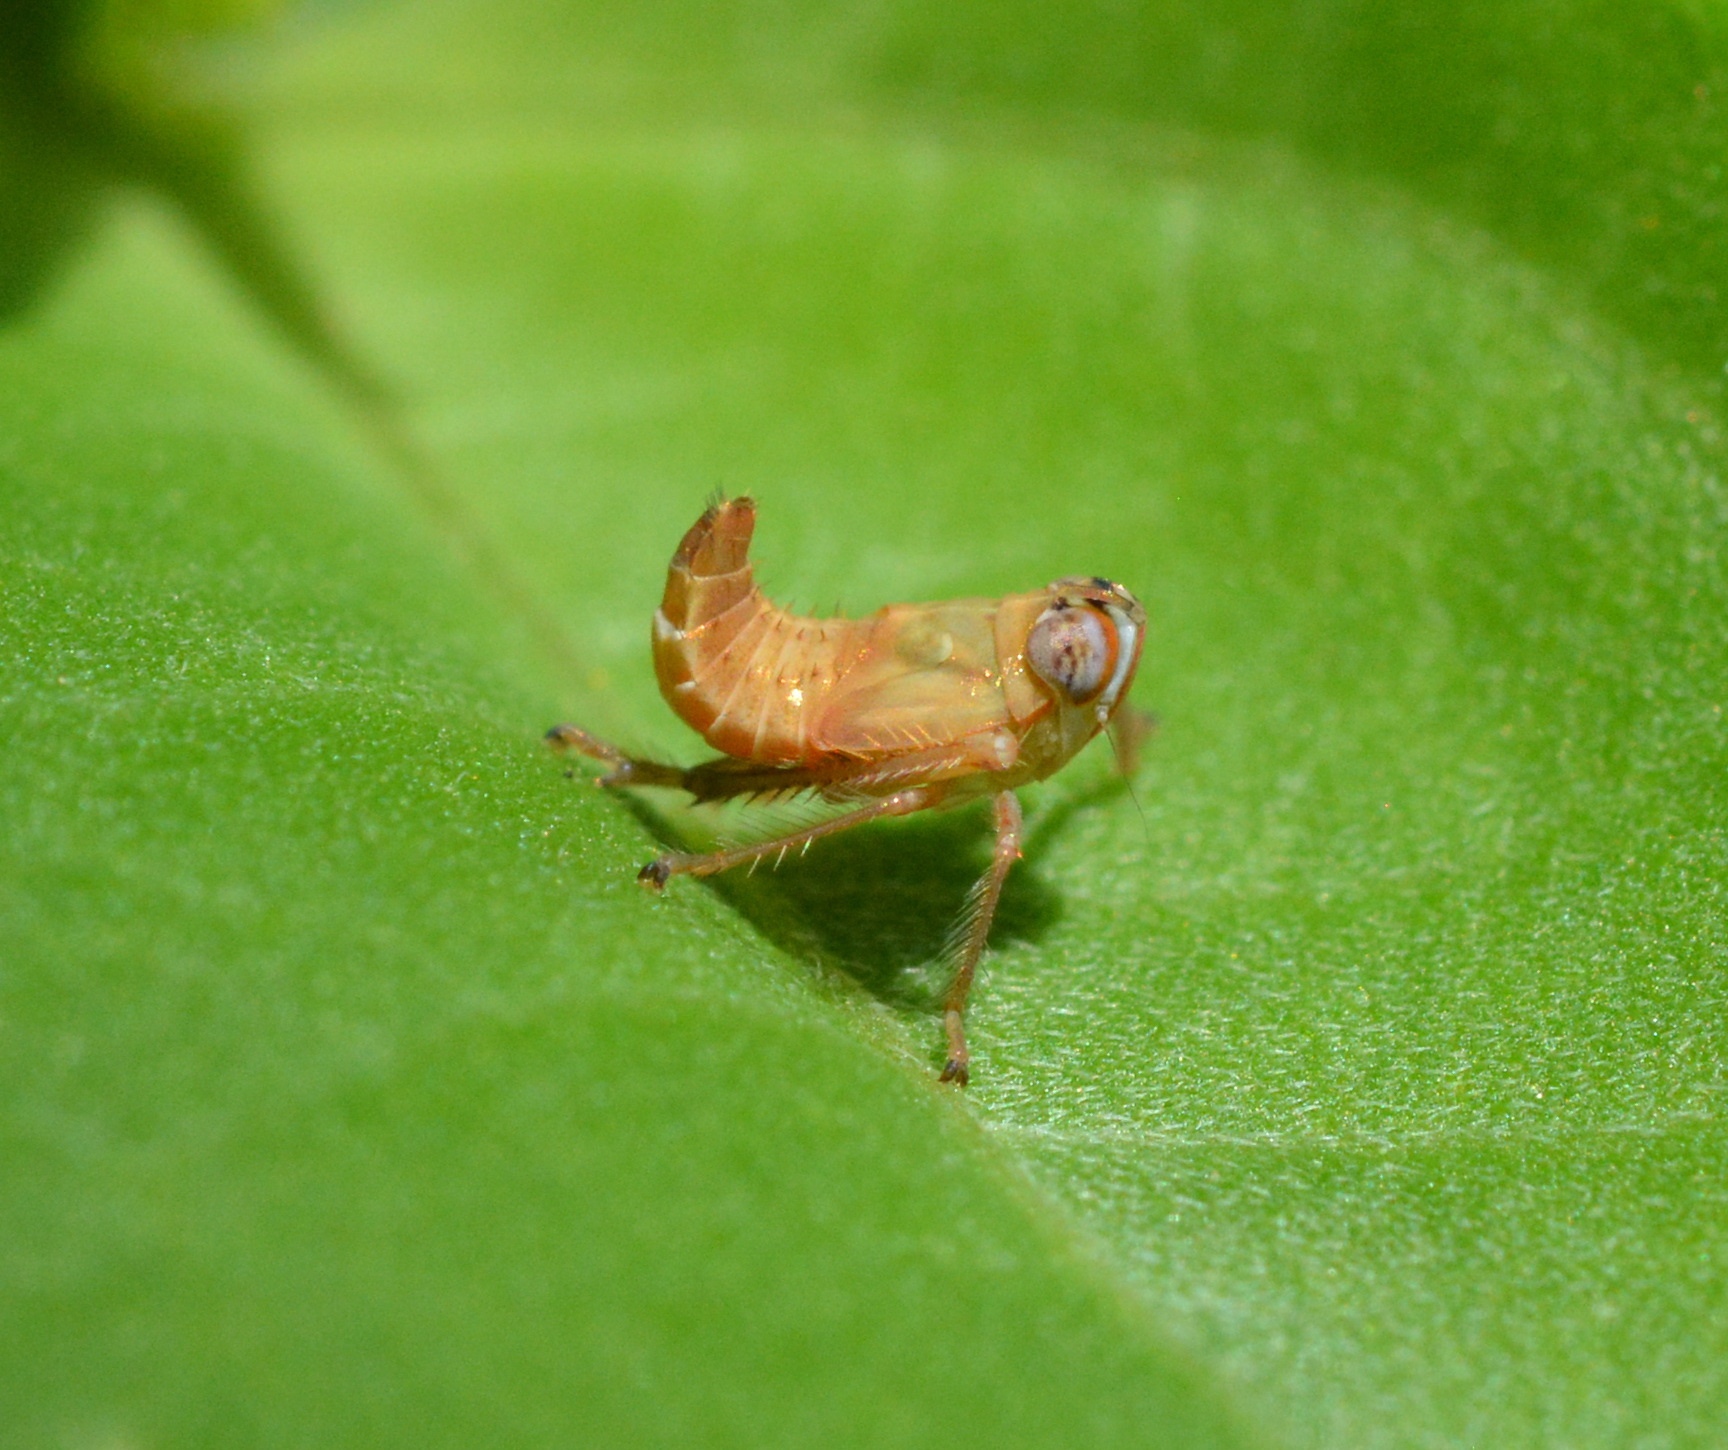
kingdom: Animalia
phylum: Arthropoda
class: Insecta
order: Hemiptera
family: Cicadellidae
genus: Jikradia
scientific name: Jikradia olitoria
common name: Coppery leafhopper
